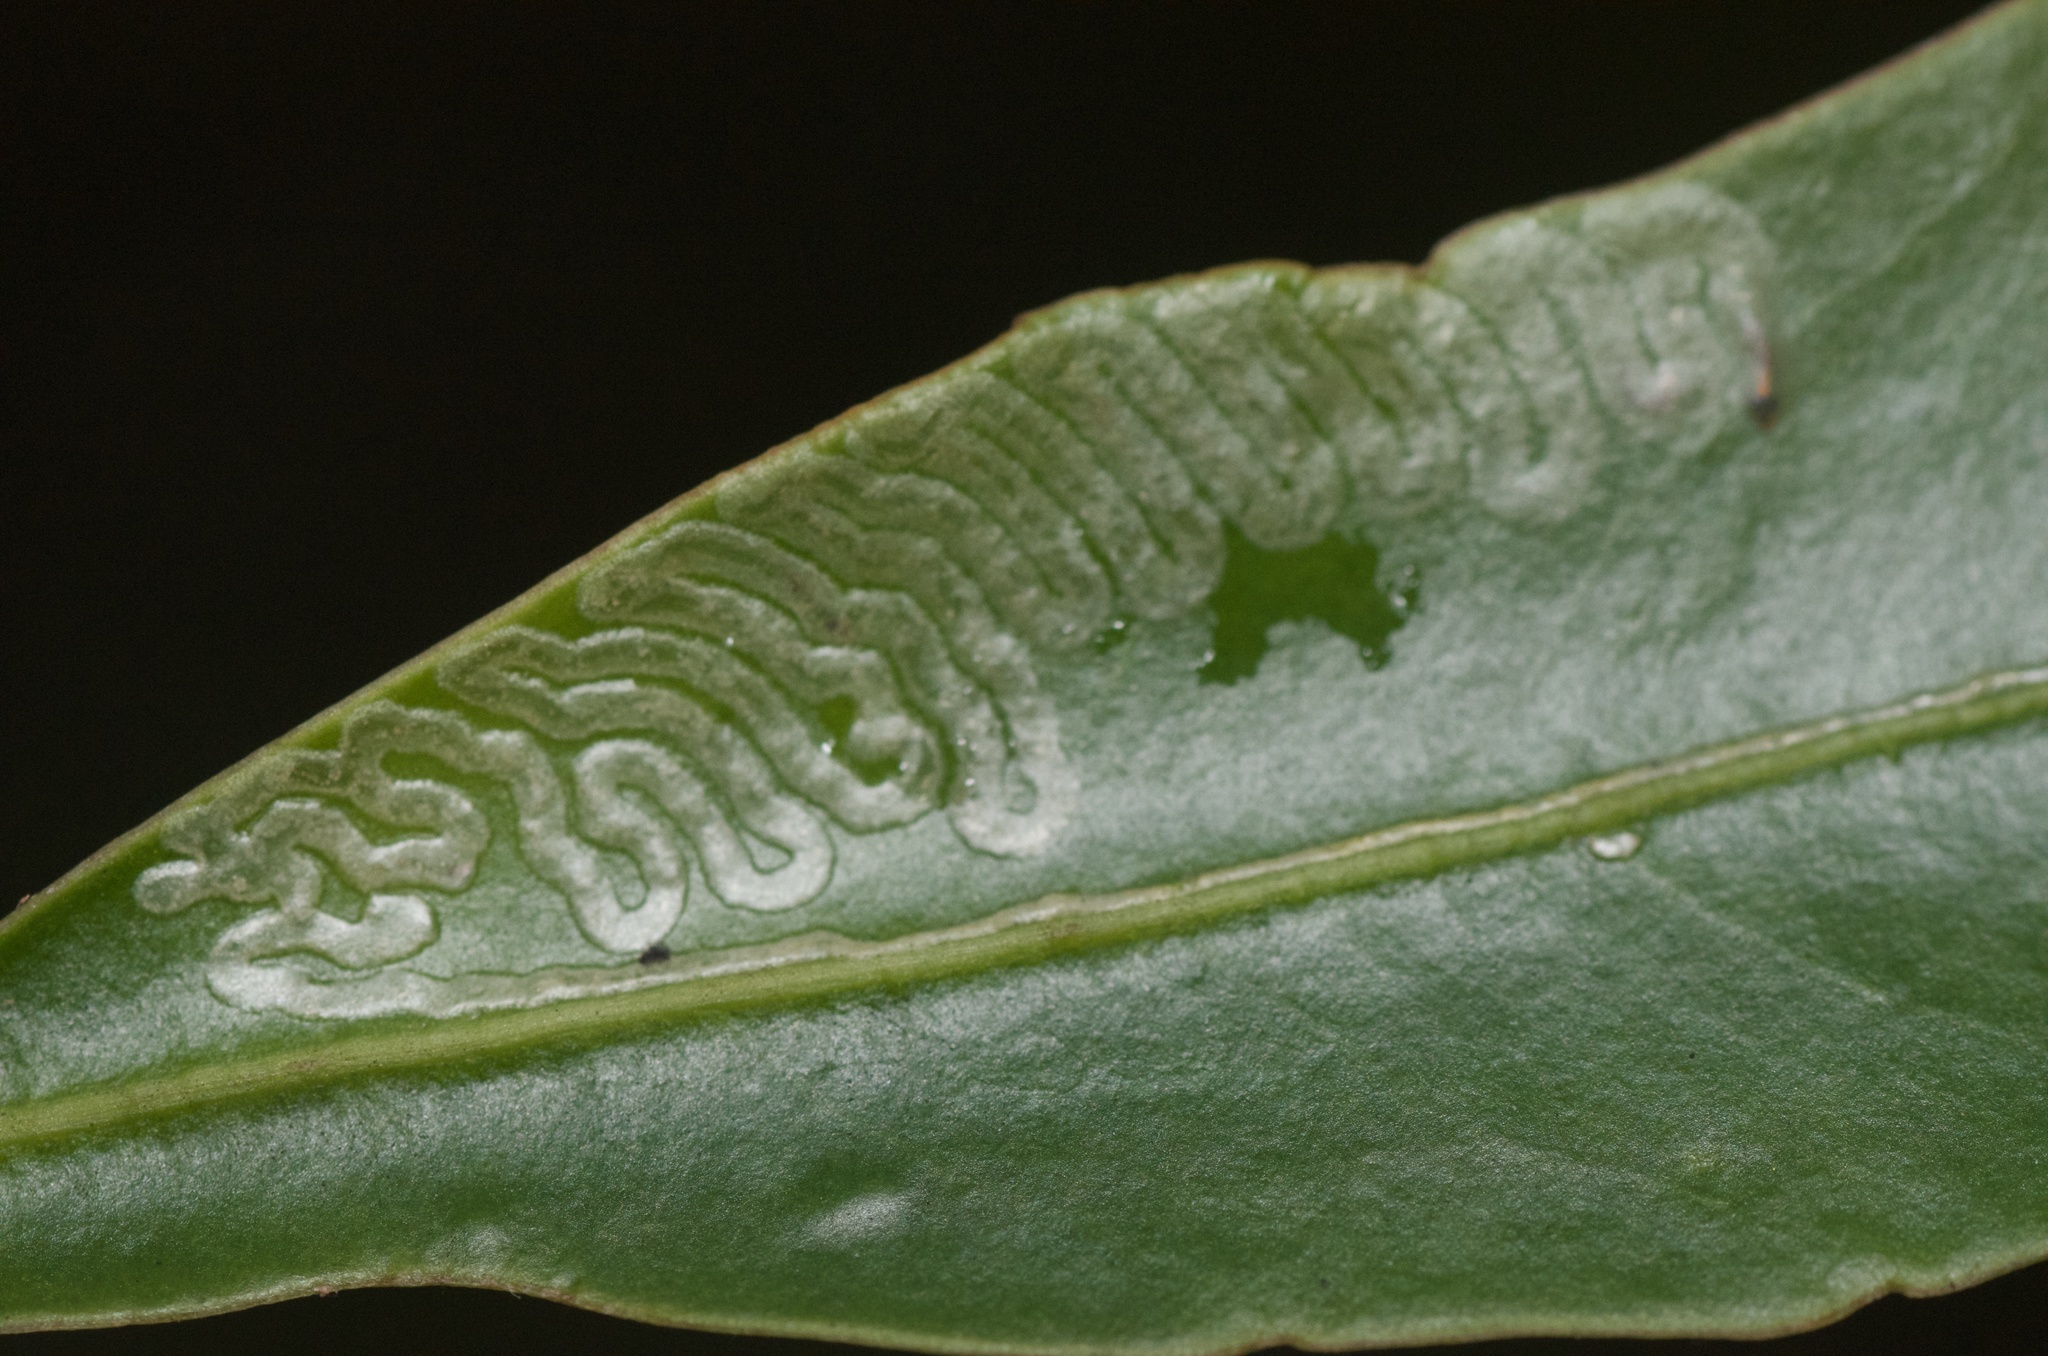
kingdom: Animalia
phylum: Arthropoda
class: Insecta
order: Lepidoptera
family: Gracillariidae
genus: Eumetriochroa
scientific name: Eumetriochroa panacivermiforma
